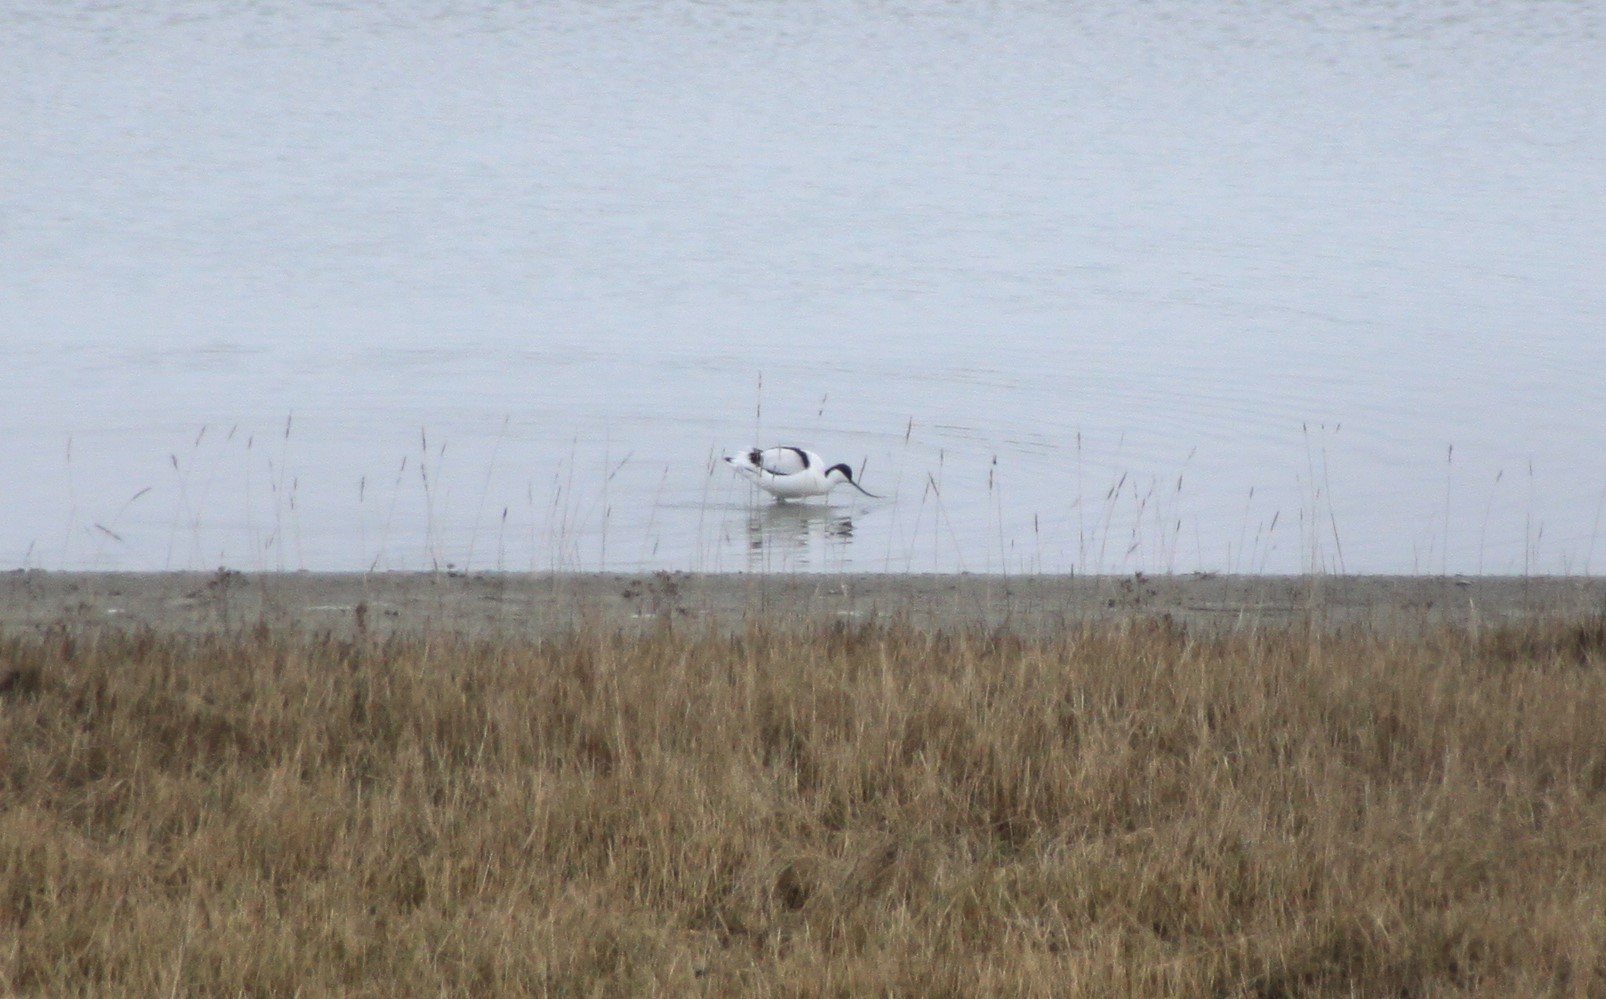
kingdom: Animalia
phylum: Chordata
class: Aves
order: Charadriiformes
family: Recurvirostridae
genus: Recurvirostra
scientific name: Recurvirostra avosetta
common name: Pied avocet
